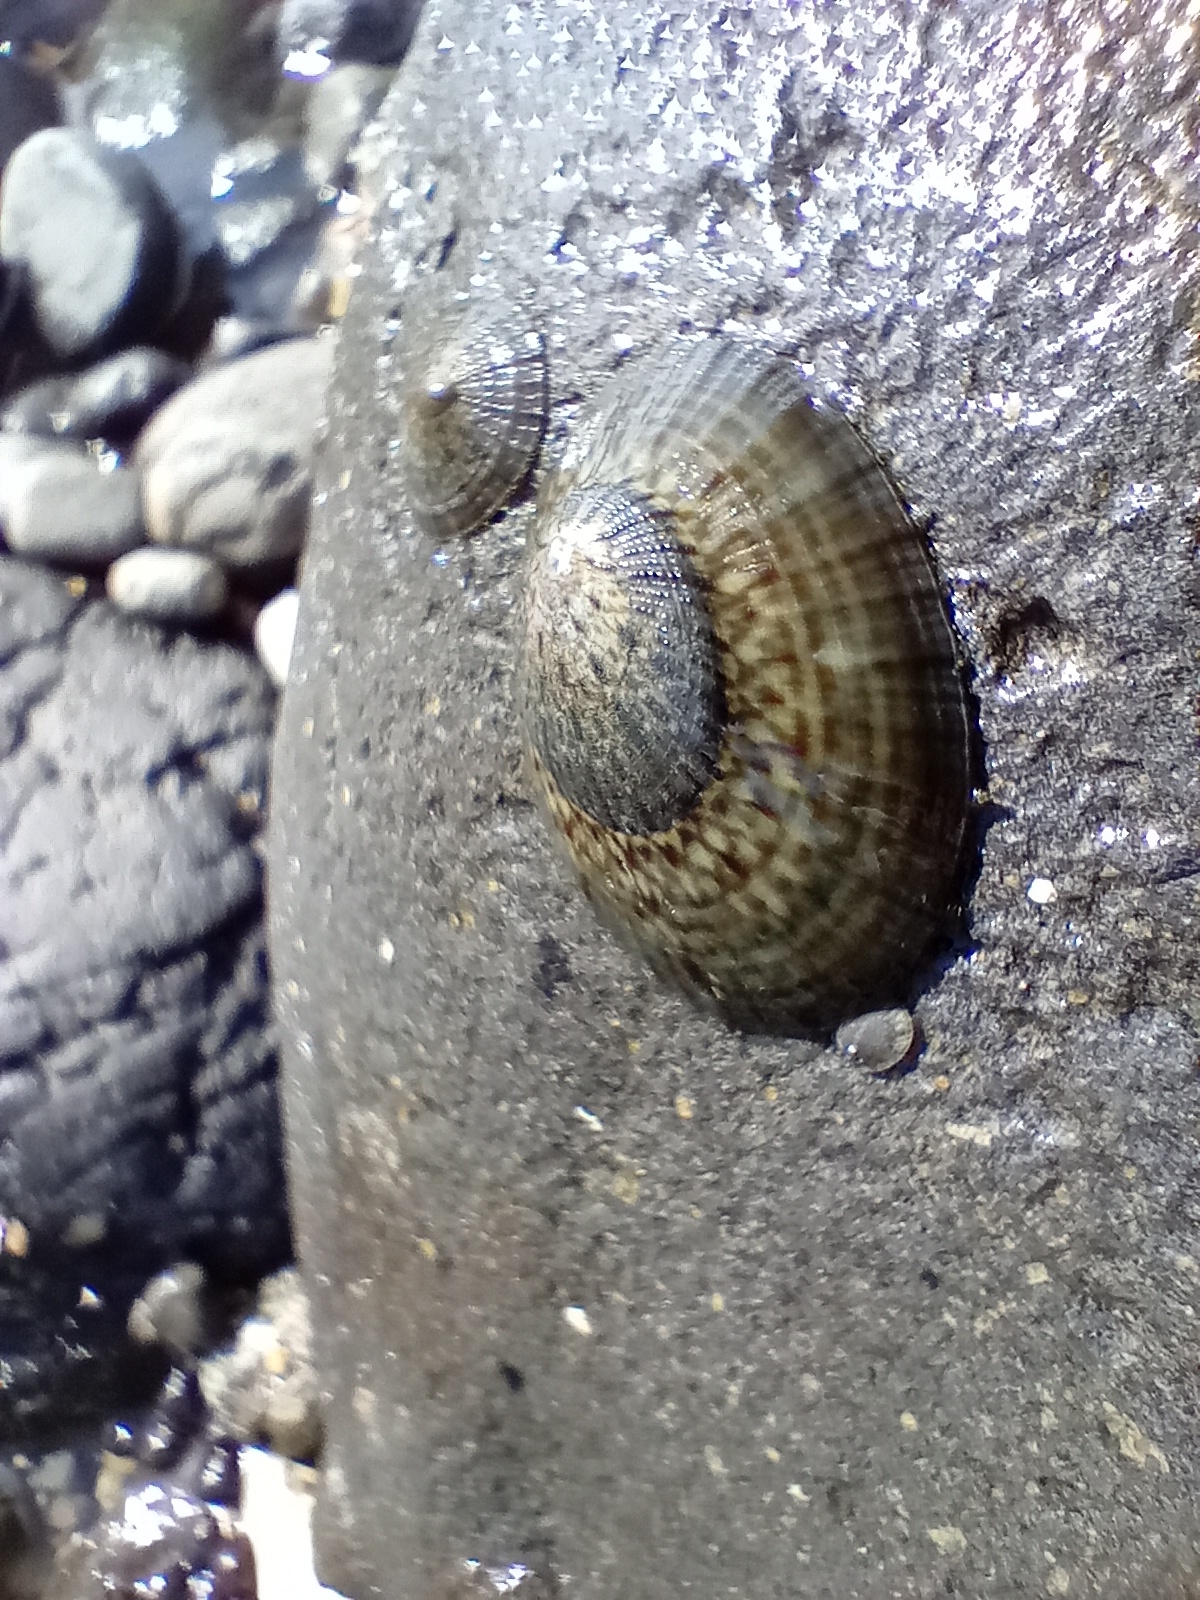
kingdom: Animalia
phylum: Mollusca
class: Gastropoda
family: Nacellidae
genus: Cellana
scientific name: Cellana radians
